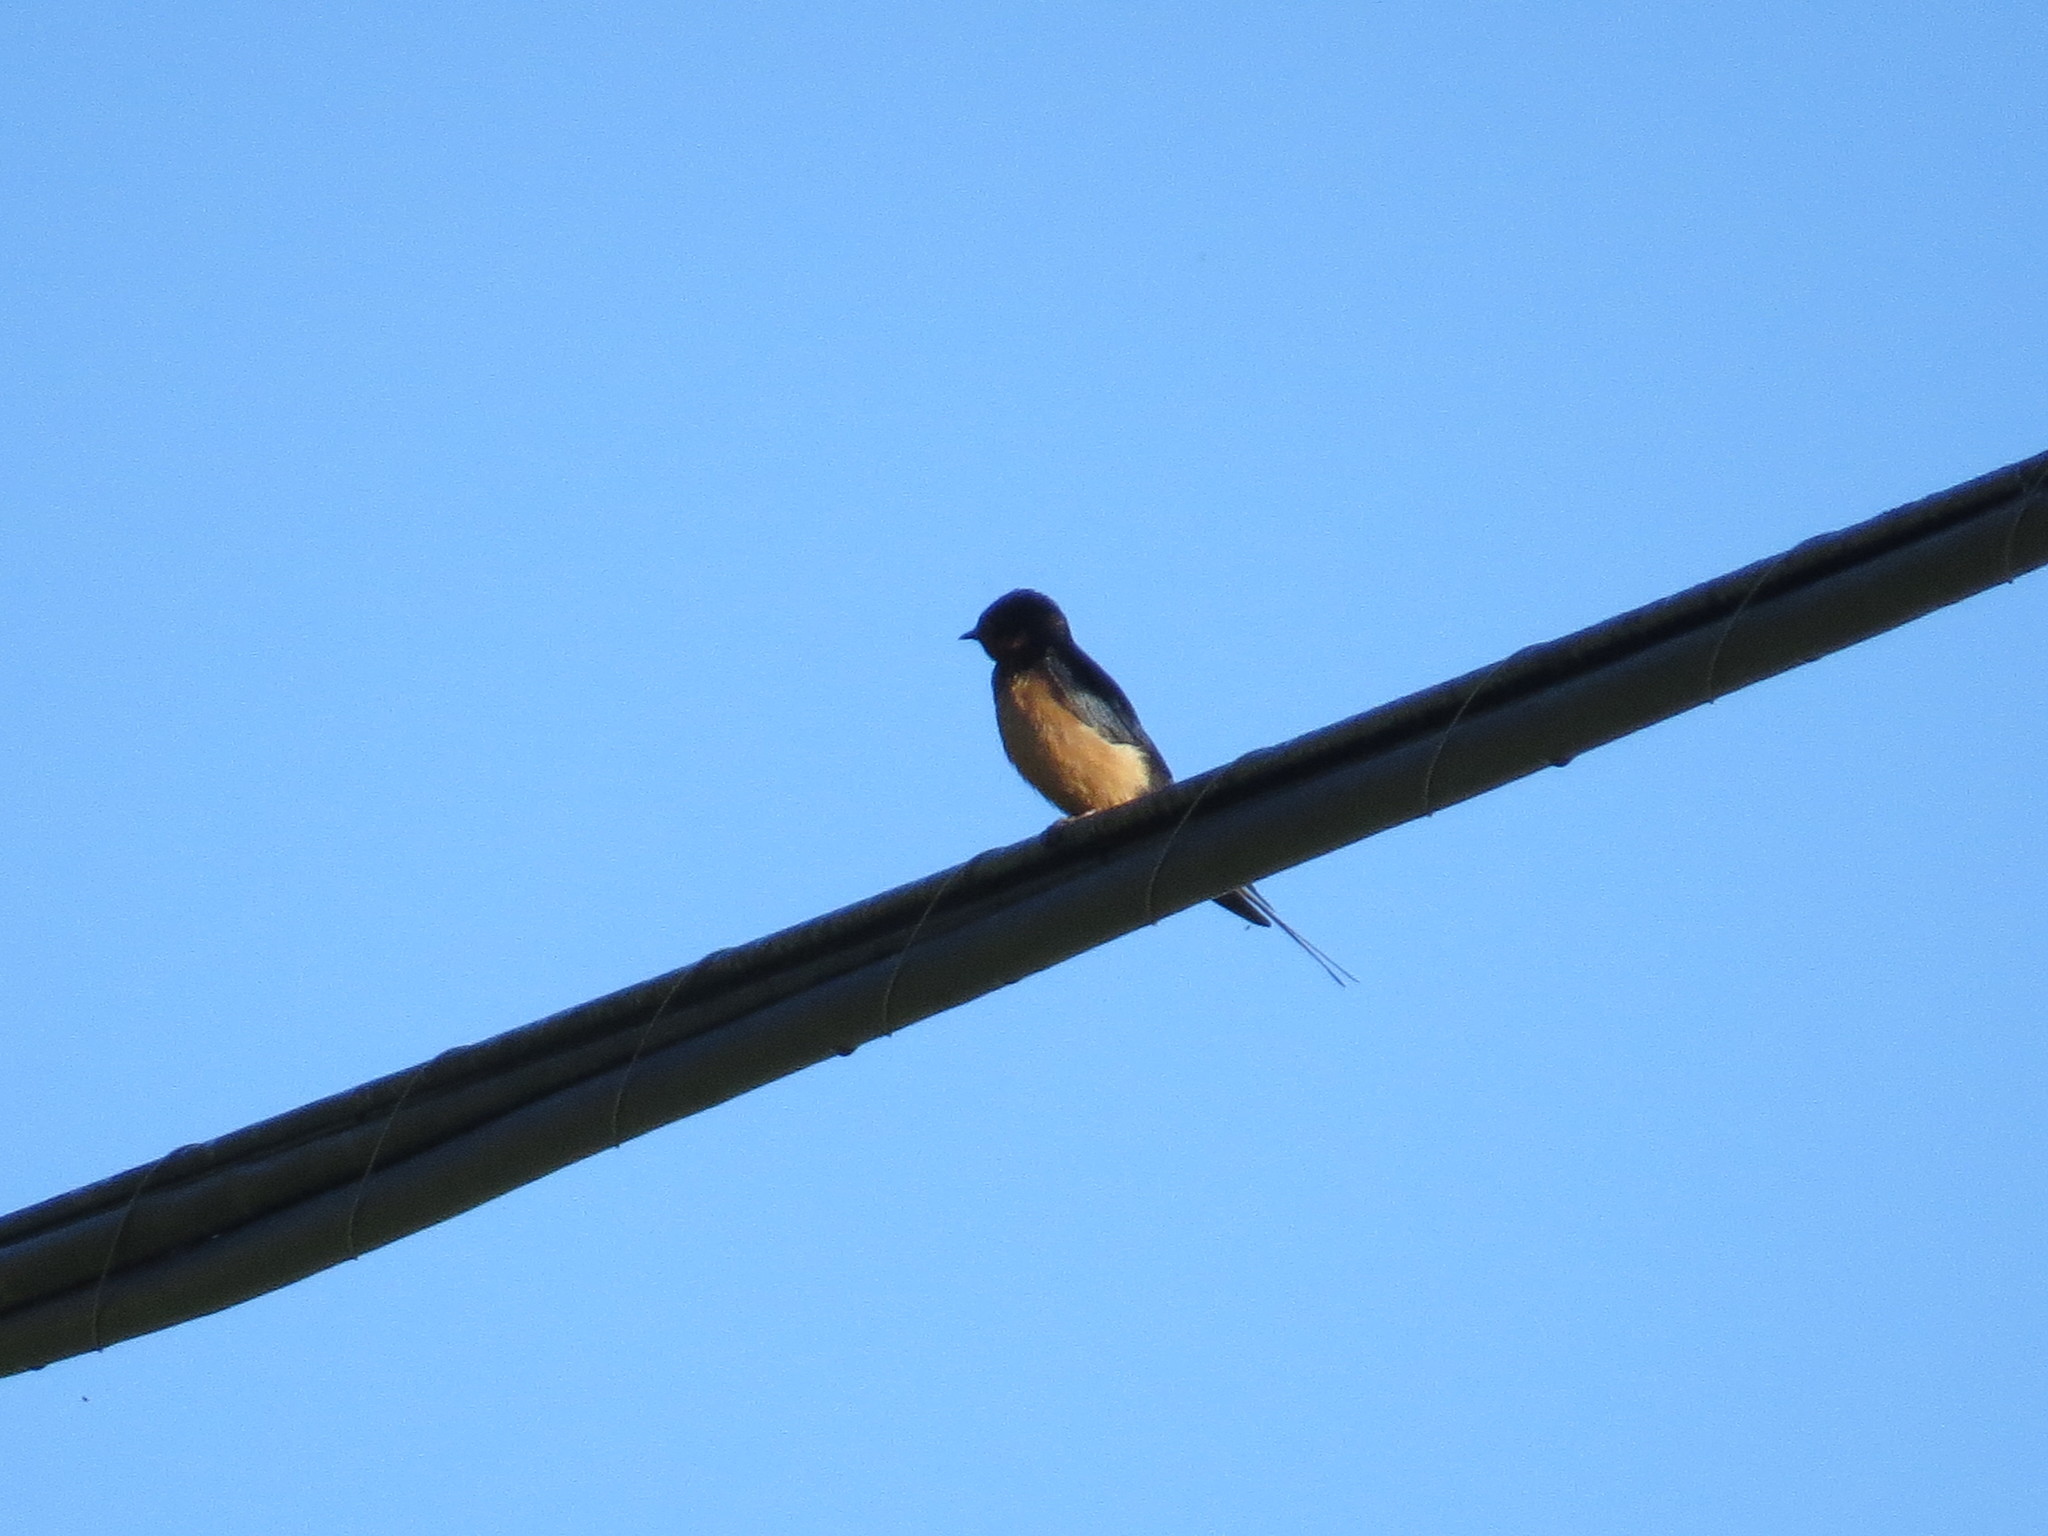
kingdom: Animalia
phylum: Chordata
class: Aves
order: Passeriformes
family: Hirundinidae
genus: Hirundo
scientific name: Hirundo rustica
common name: Barn swallow
